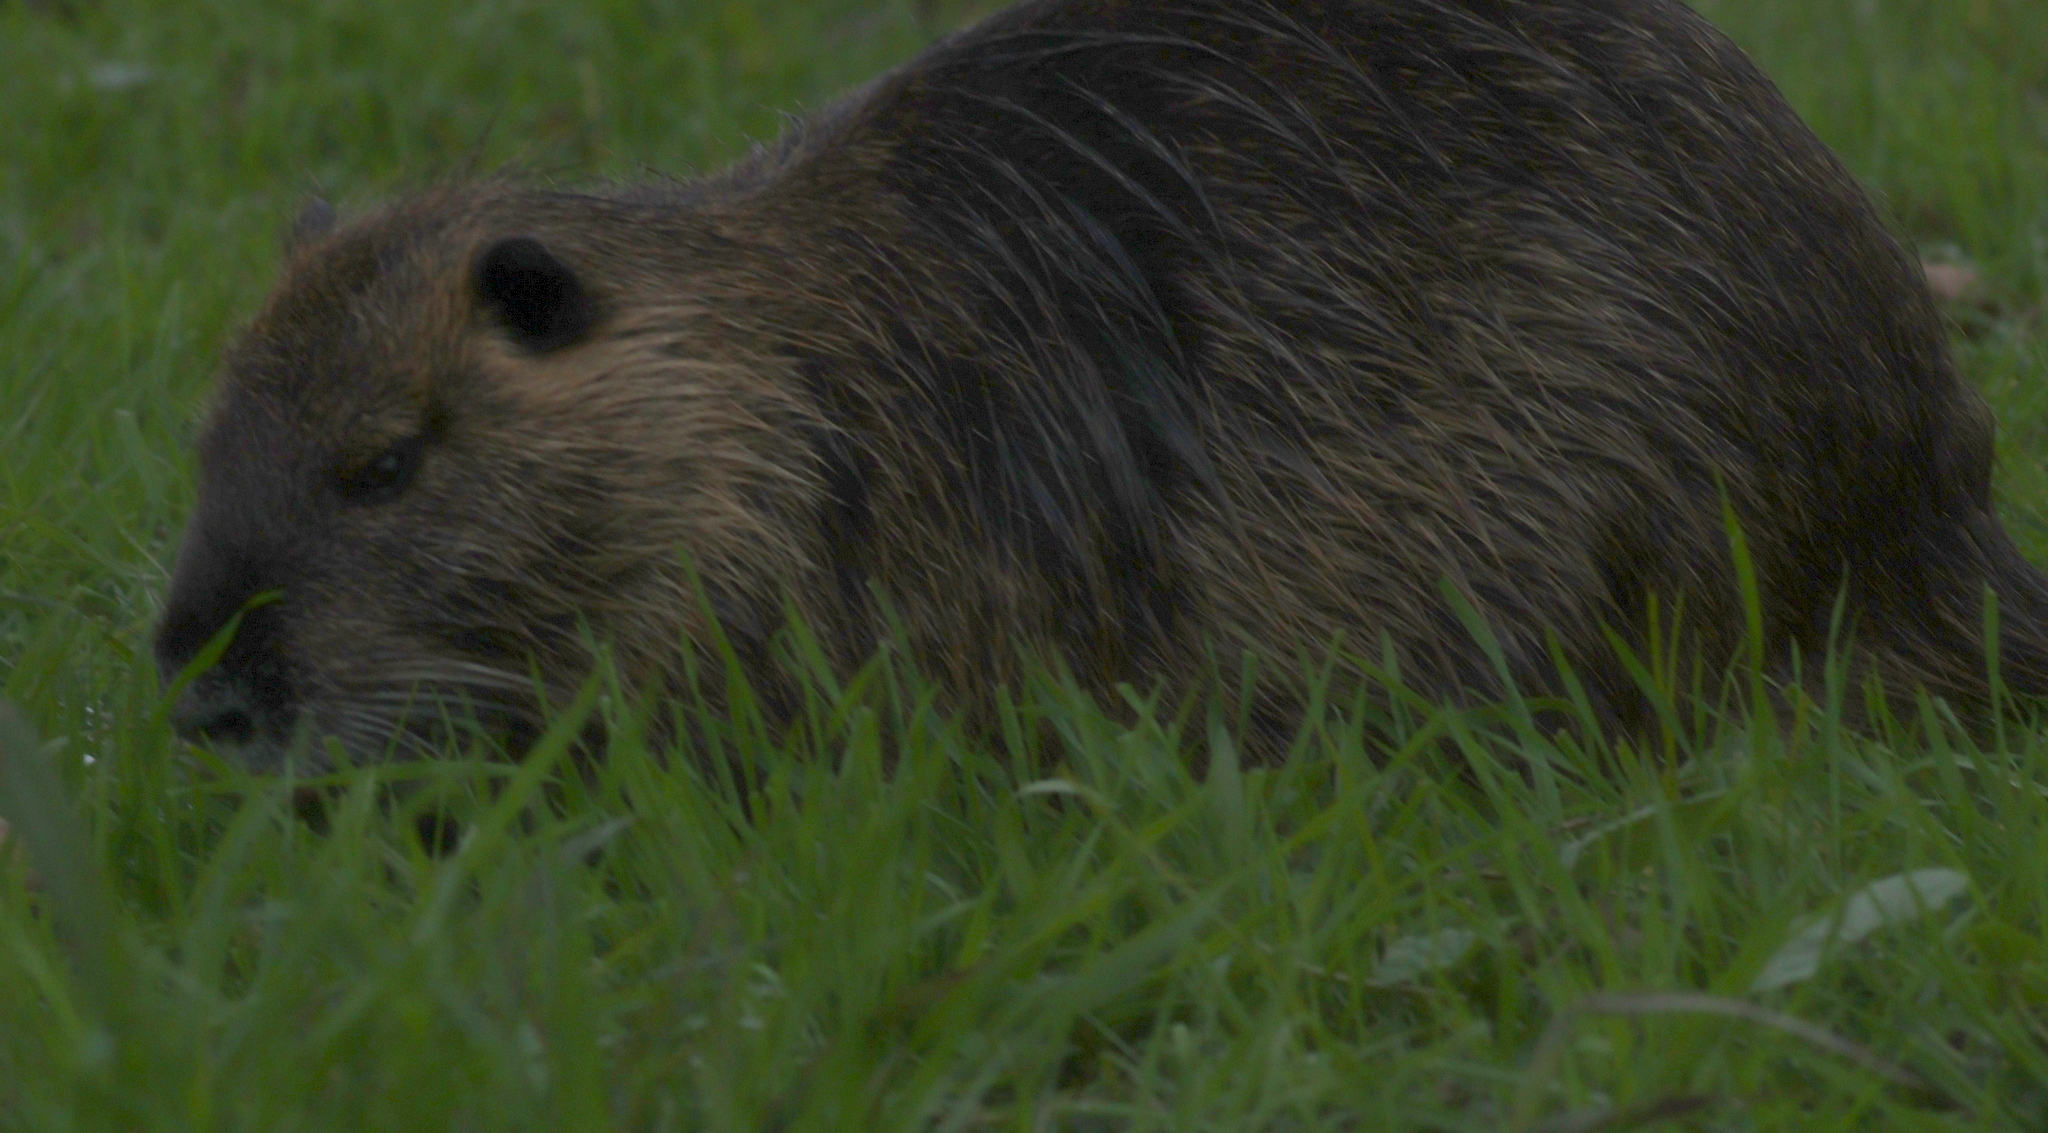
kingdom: Animalia
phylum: Chordata
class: Mammalia
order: Rodentia
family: Myocastoridae
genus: Myocastor
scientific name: Myocastor coypus
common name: Coypu
